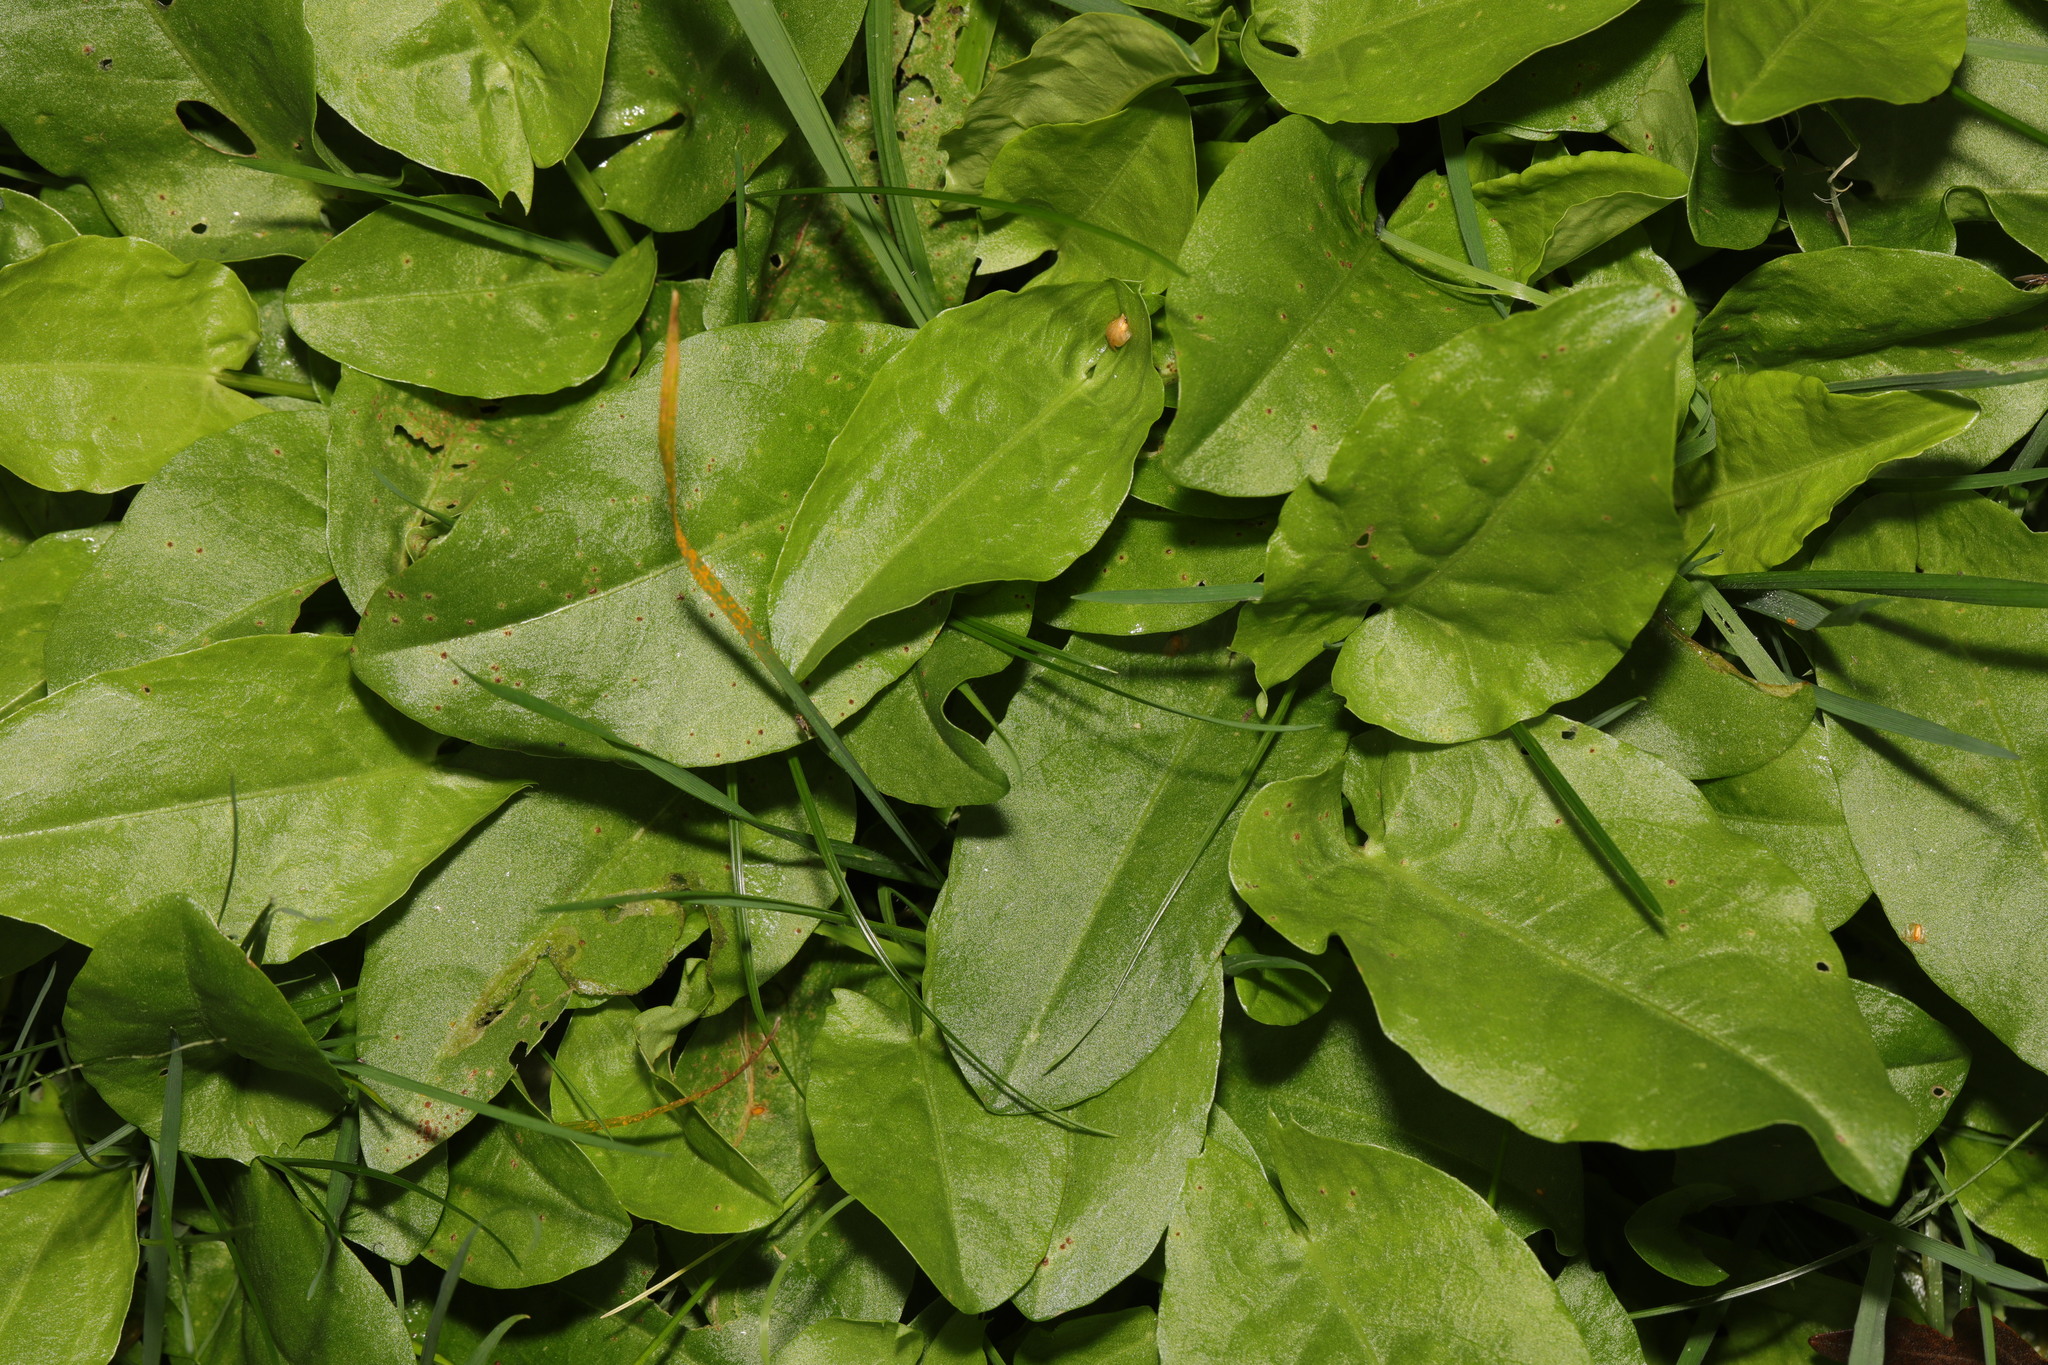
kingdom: Plantae
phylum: Tracheophyta
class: Magnoliopsida
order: Caryophyllales
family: Polygonaceae
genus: Rumex
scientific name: Rumex acetosa
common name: Garden sorrel
